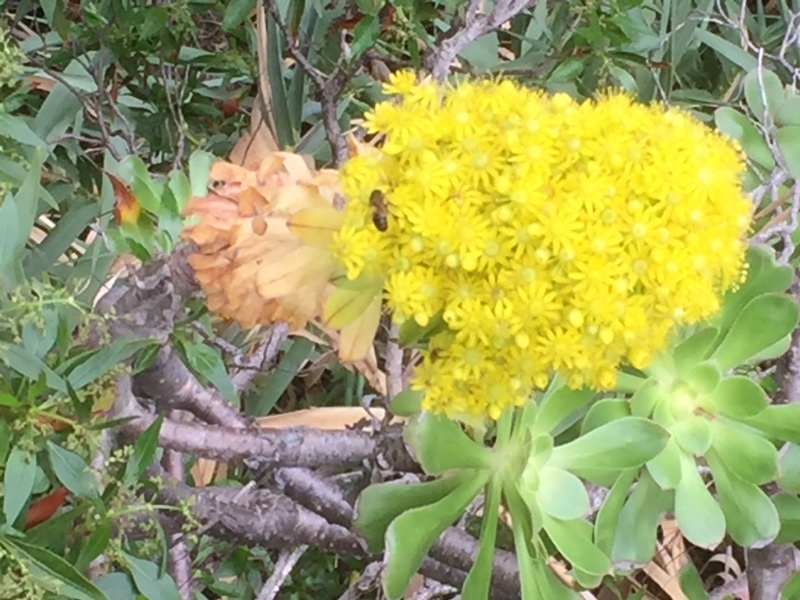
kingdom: Plantae
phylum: Tracheophyta
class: Magnoliopsida
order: Saxifragales
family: Crassulaceae
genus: Aeonium
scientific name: Aeonium arboreum
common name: Tree aeonium
